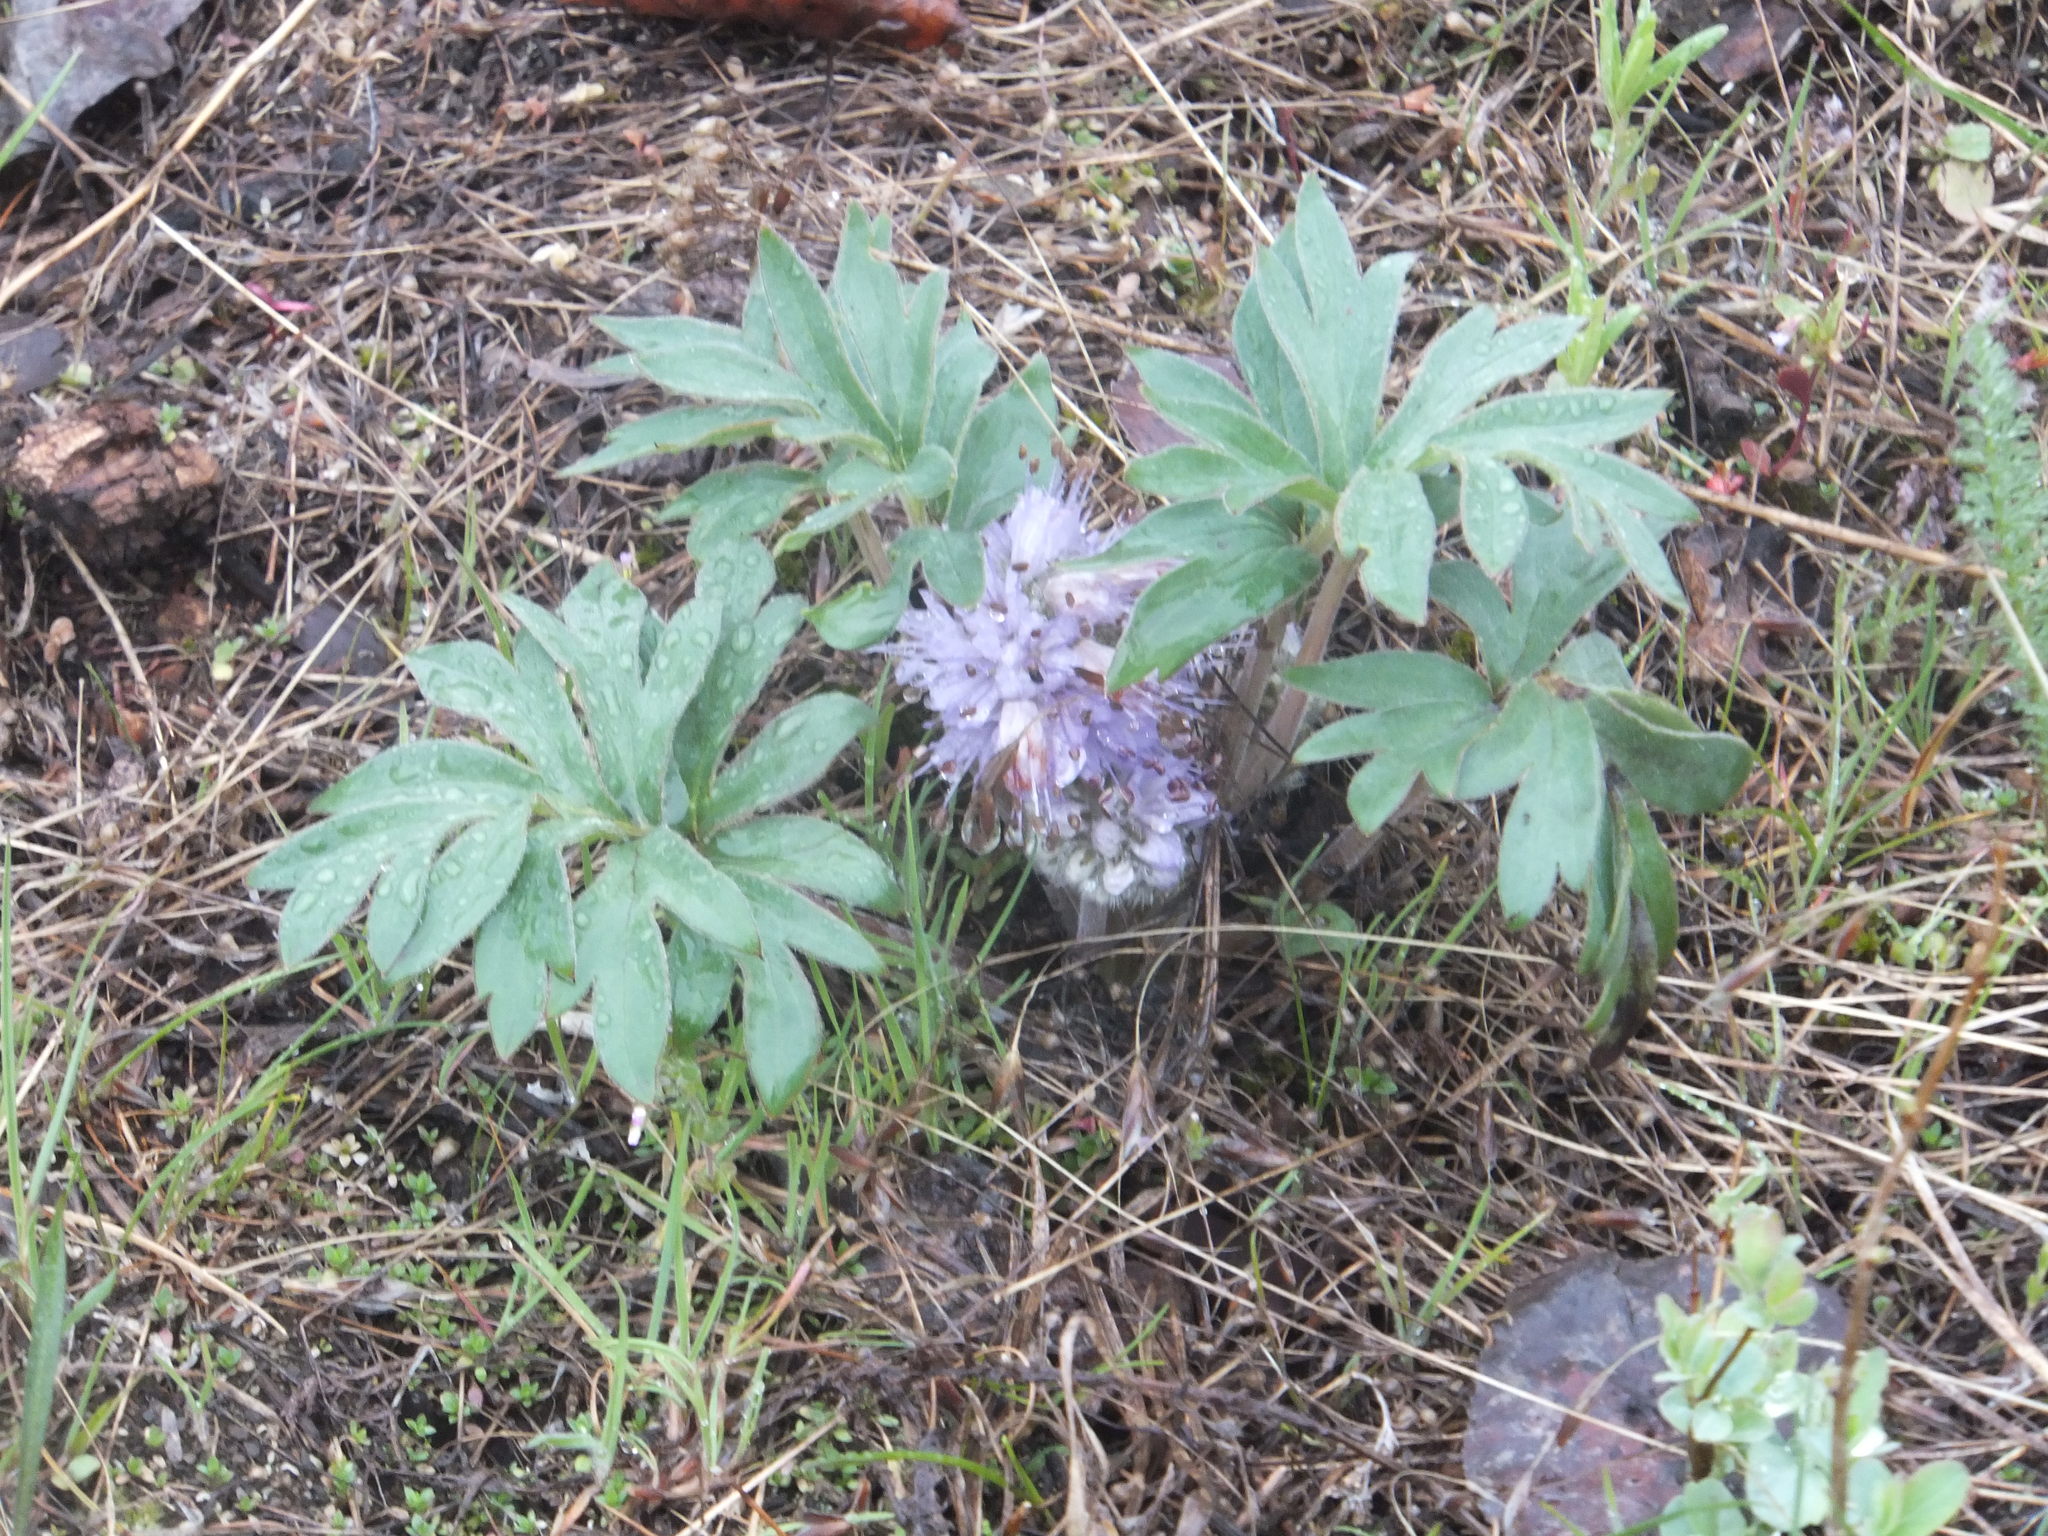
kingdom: Plantae
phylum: Tracheophyta
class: Magnoliopsida
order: Boraginales
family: Hydrophyllaceae
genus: Hydrophyllum
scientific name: Hydrophyllum capitatum
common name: Woollen-breeches
